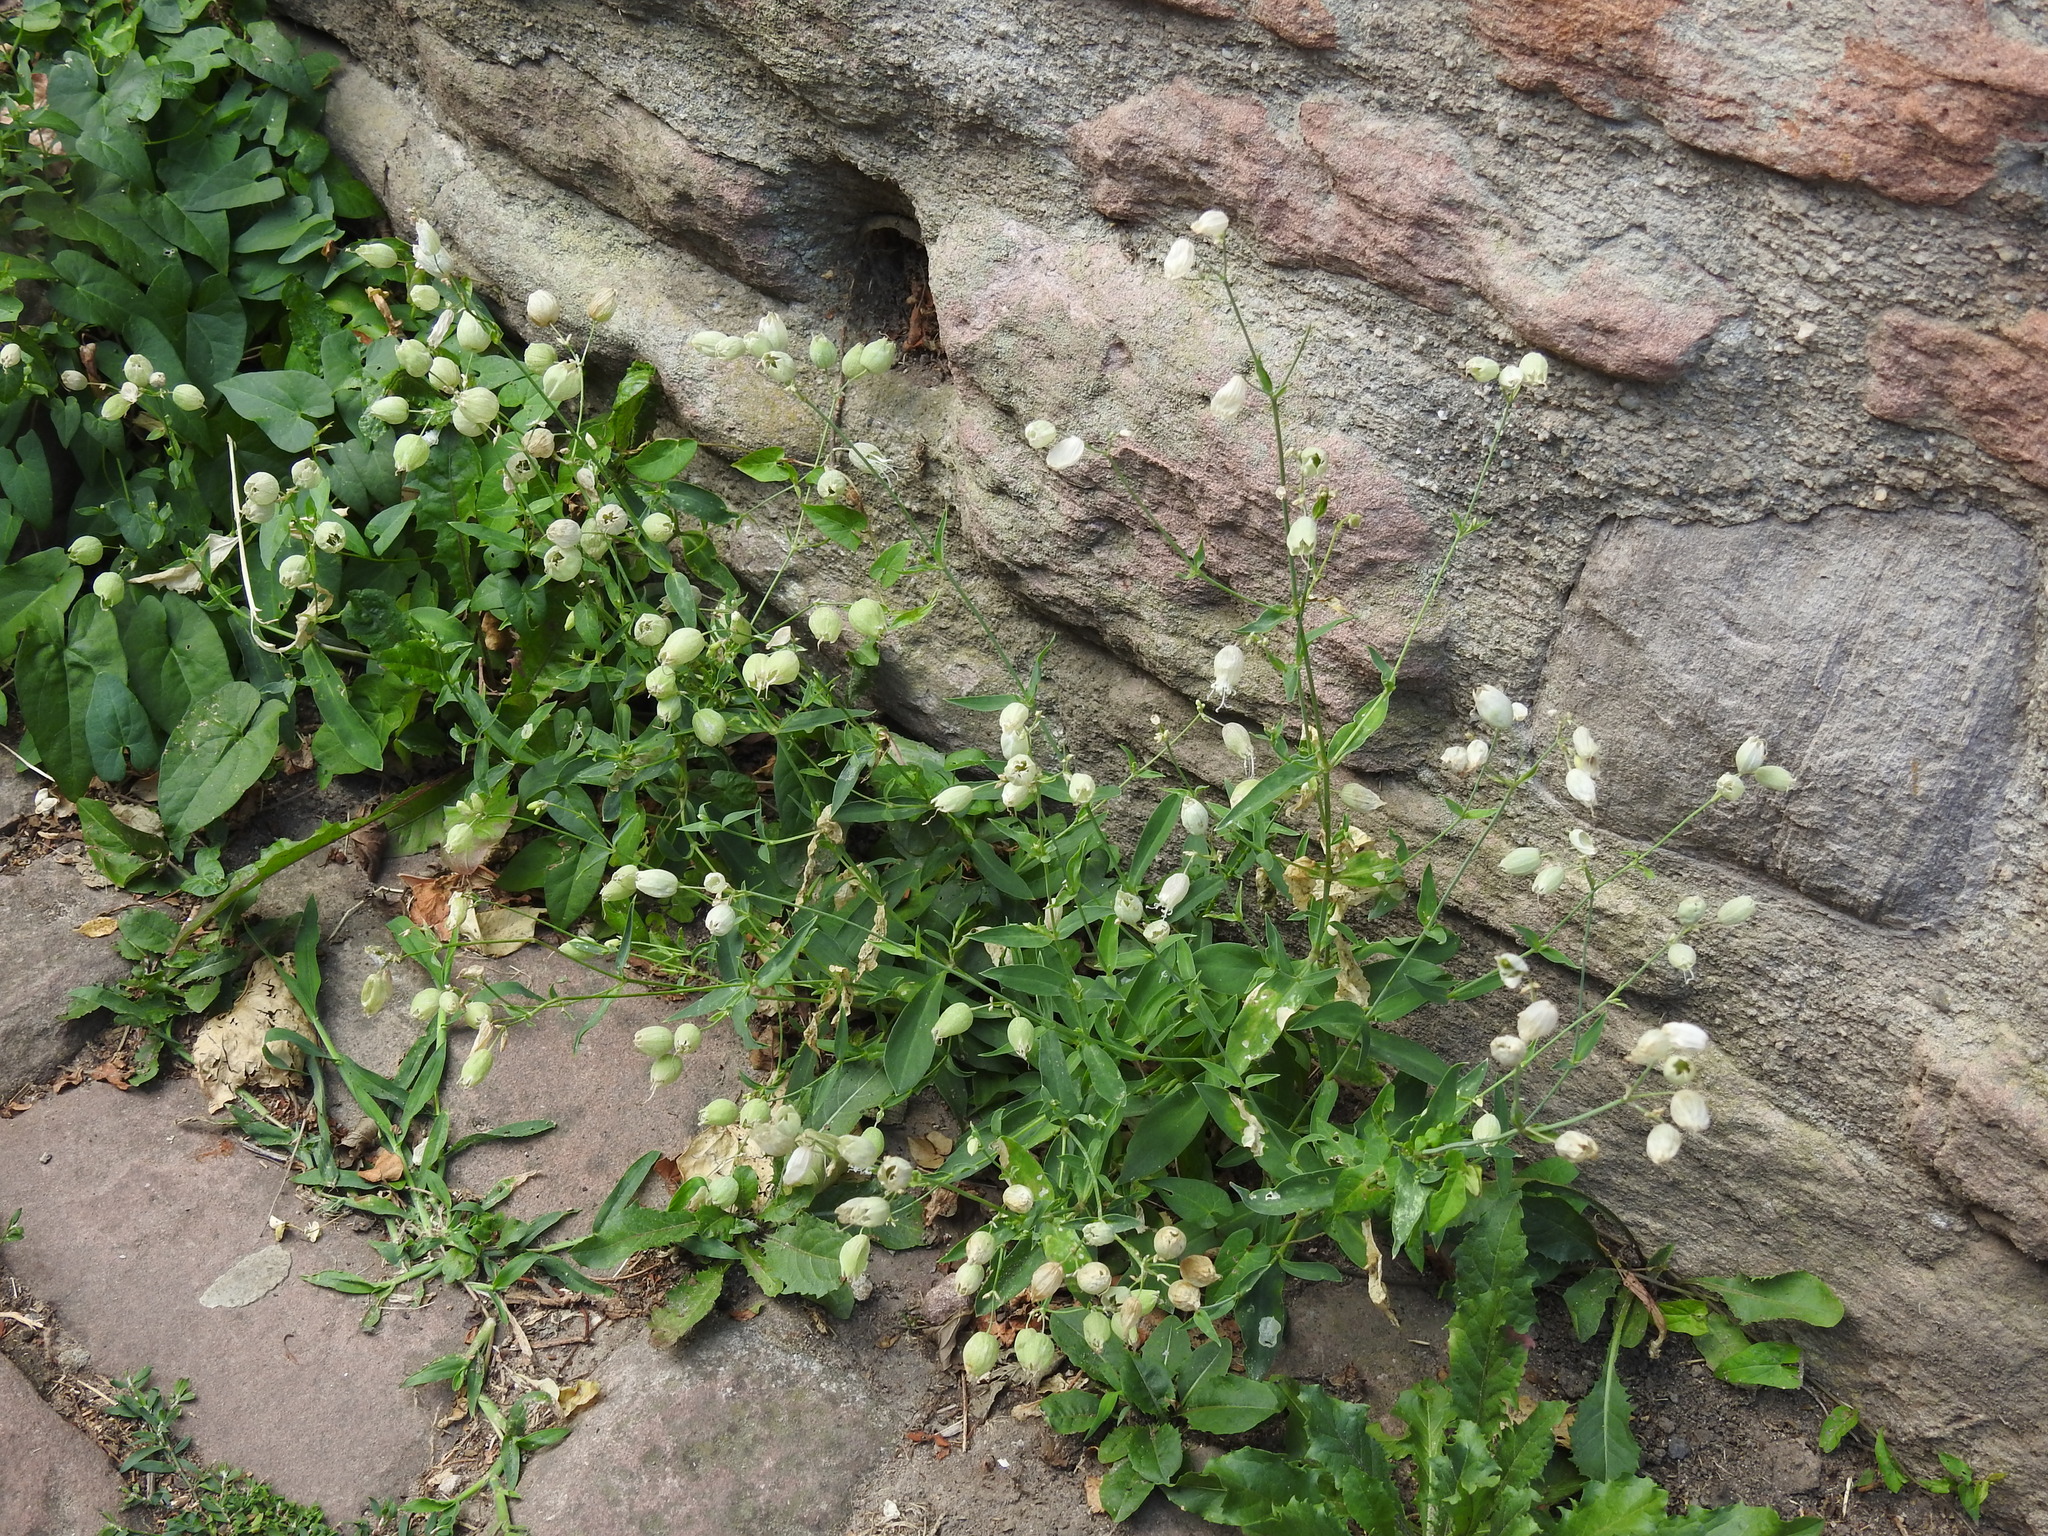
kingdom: Plantae
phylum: Tracheophyta
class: Magnoliopsida
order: Caryophyllales
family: Caryophyllaceae
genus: Silene
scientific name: Silene vulgaris
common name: Bladder campion
